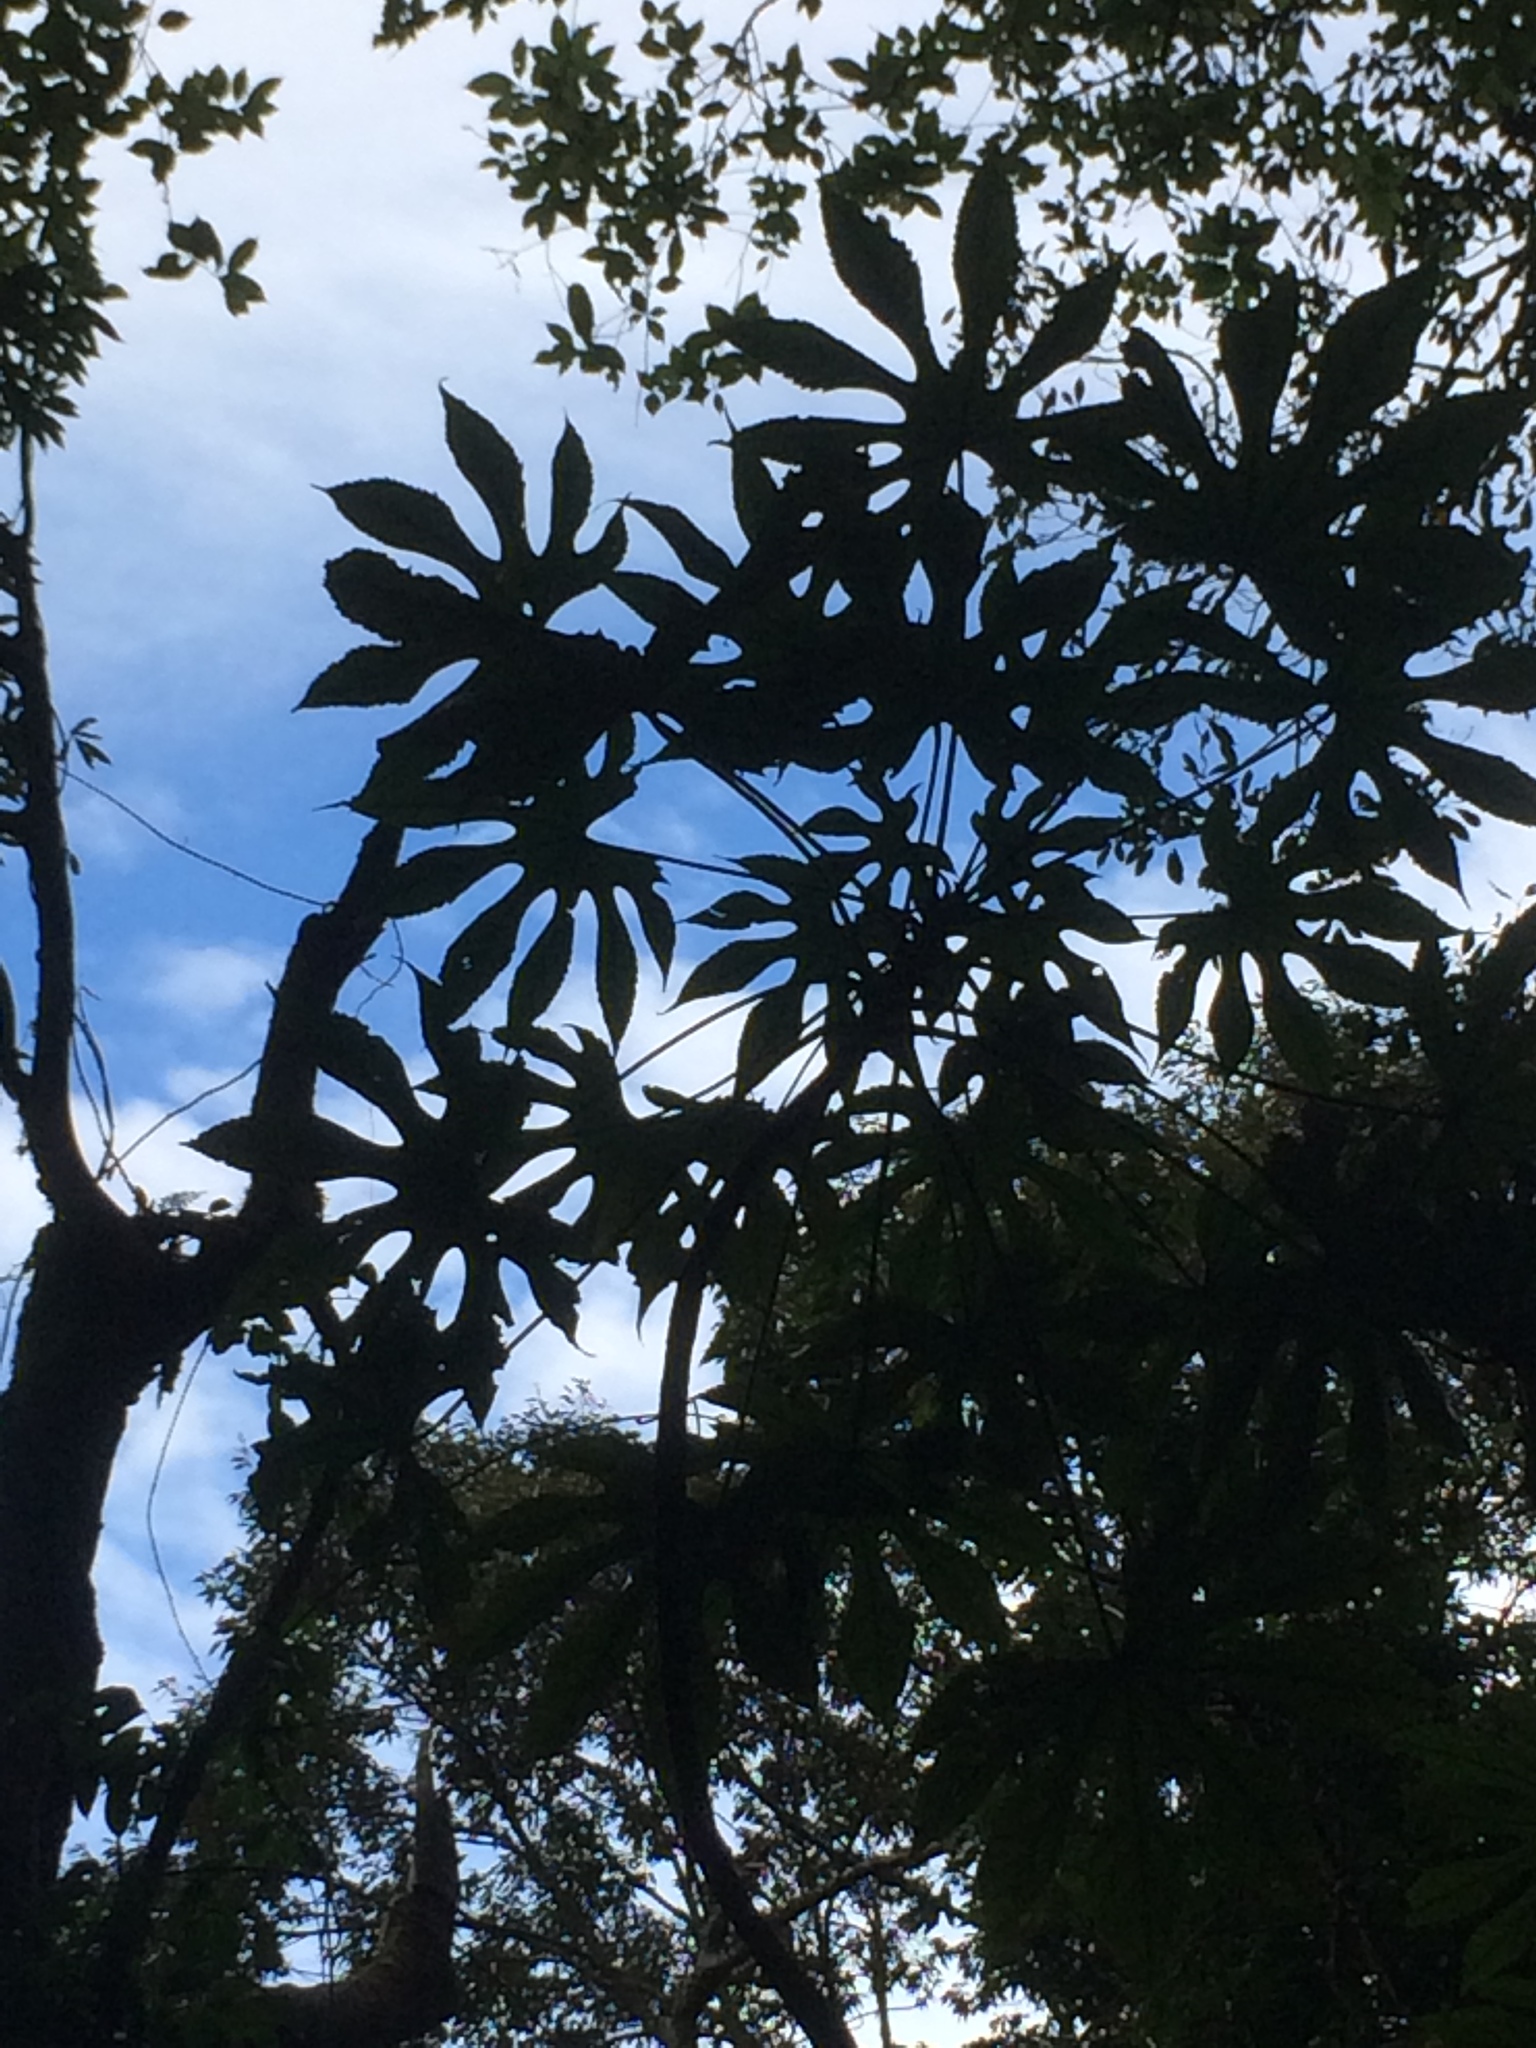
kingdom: Plantae
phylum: Tracheophyta
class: Magnoliopsida
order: Apiales
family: Araliaceae
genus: Fatsia
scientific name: Fatsia polycarpa
